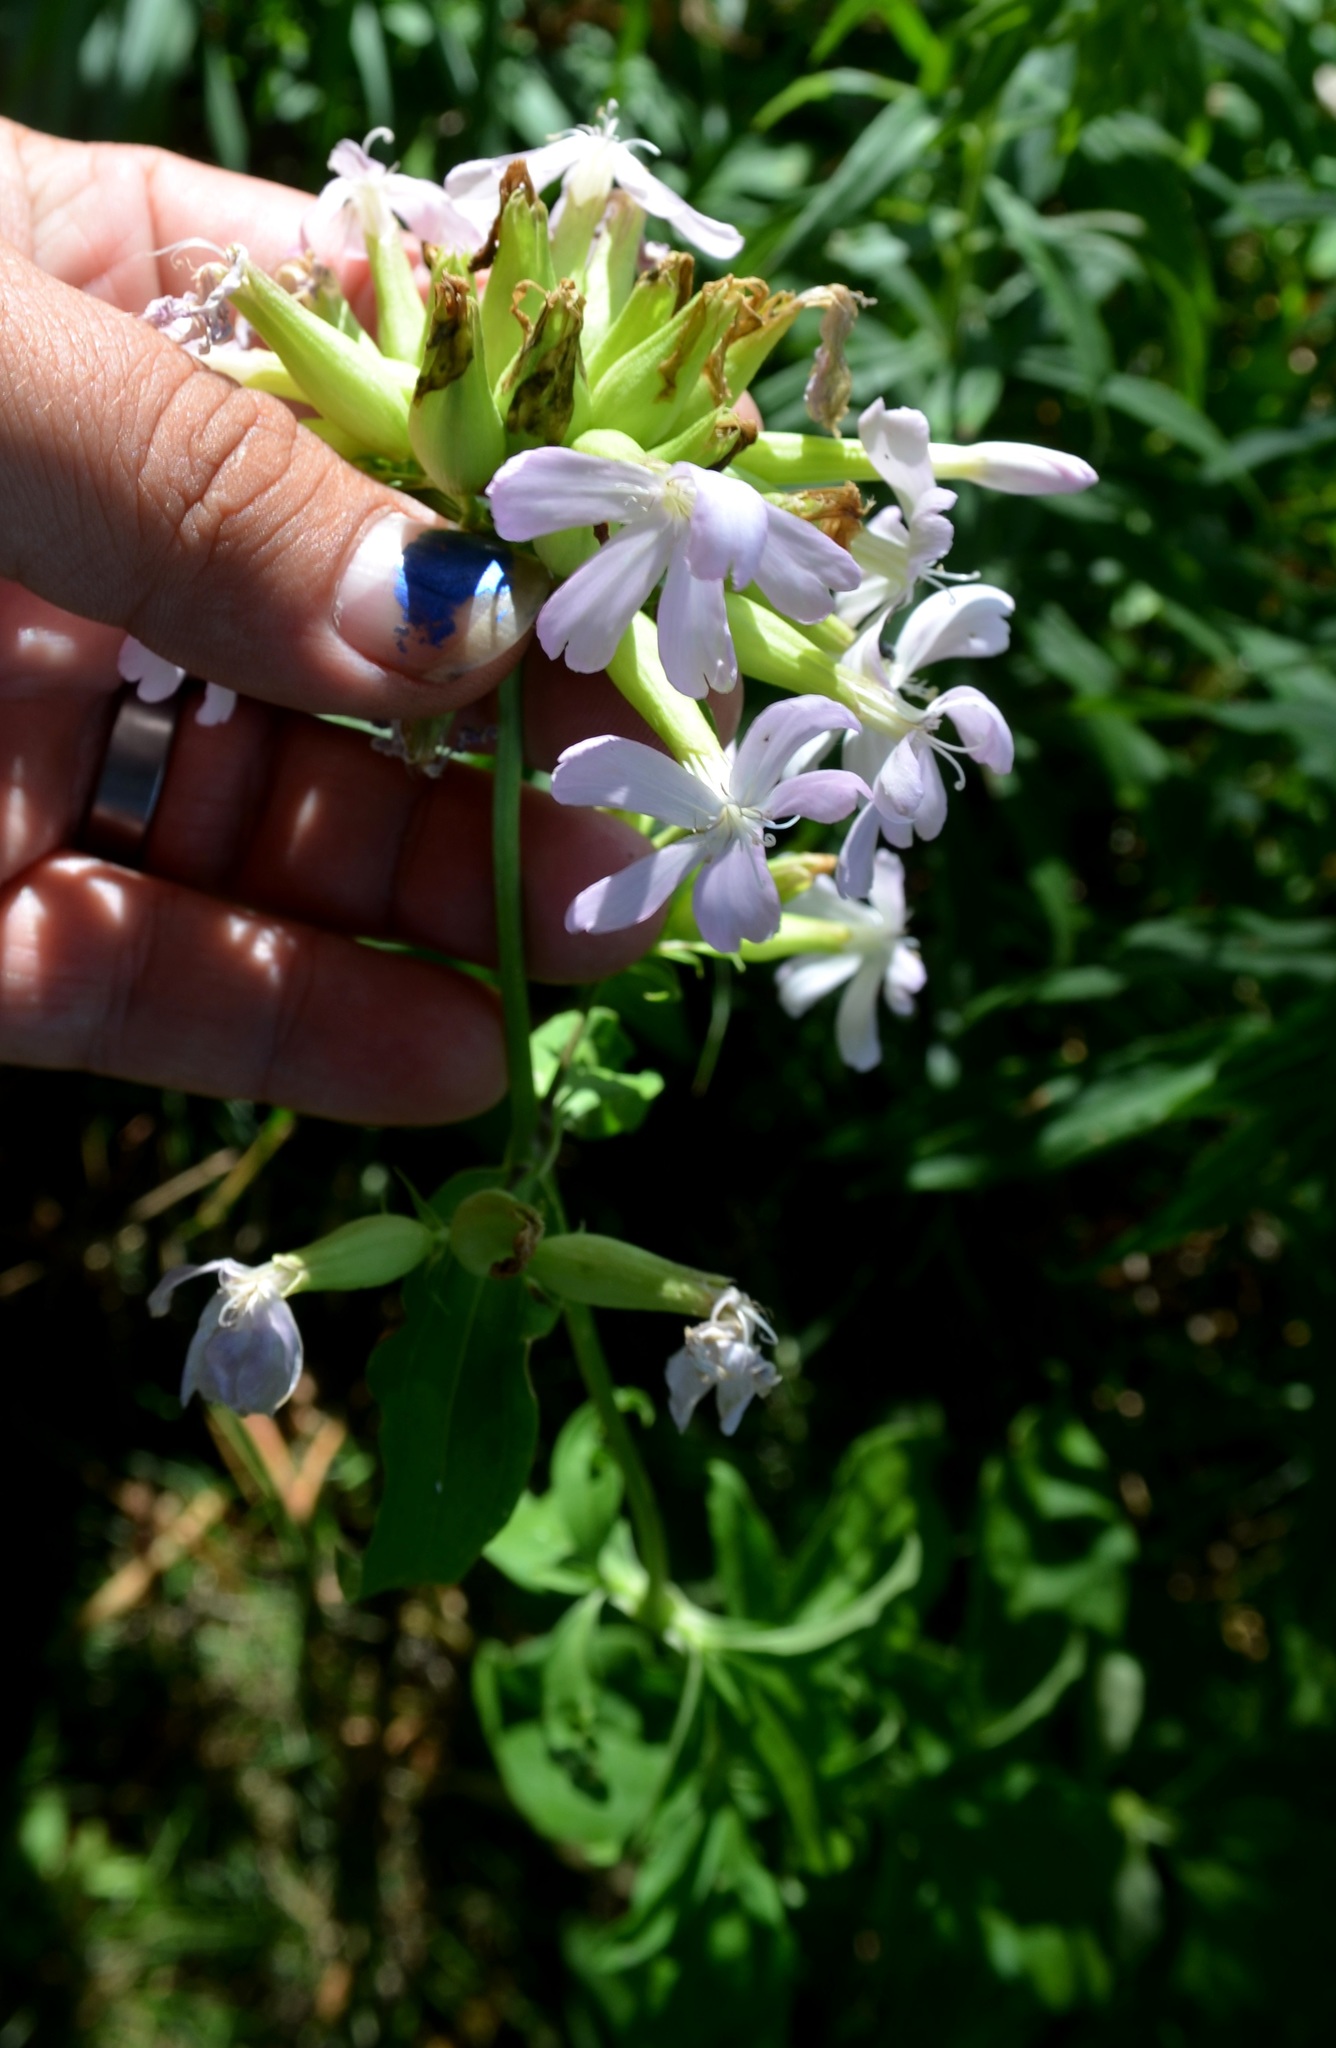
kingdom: Plantae
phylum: Tracheophyta
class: Magnoliopsida
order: Caryophyllales
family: Caryophyllaceae
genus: Saponaria
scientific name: Saponaria officinalis
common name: Soapwort
